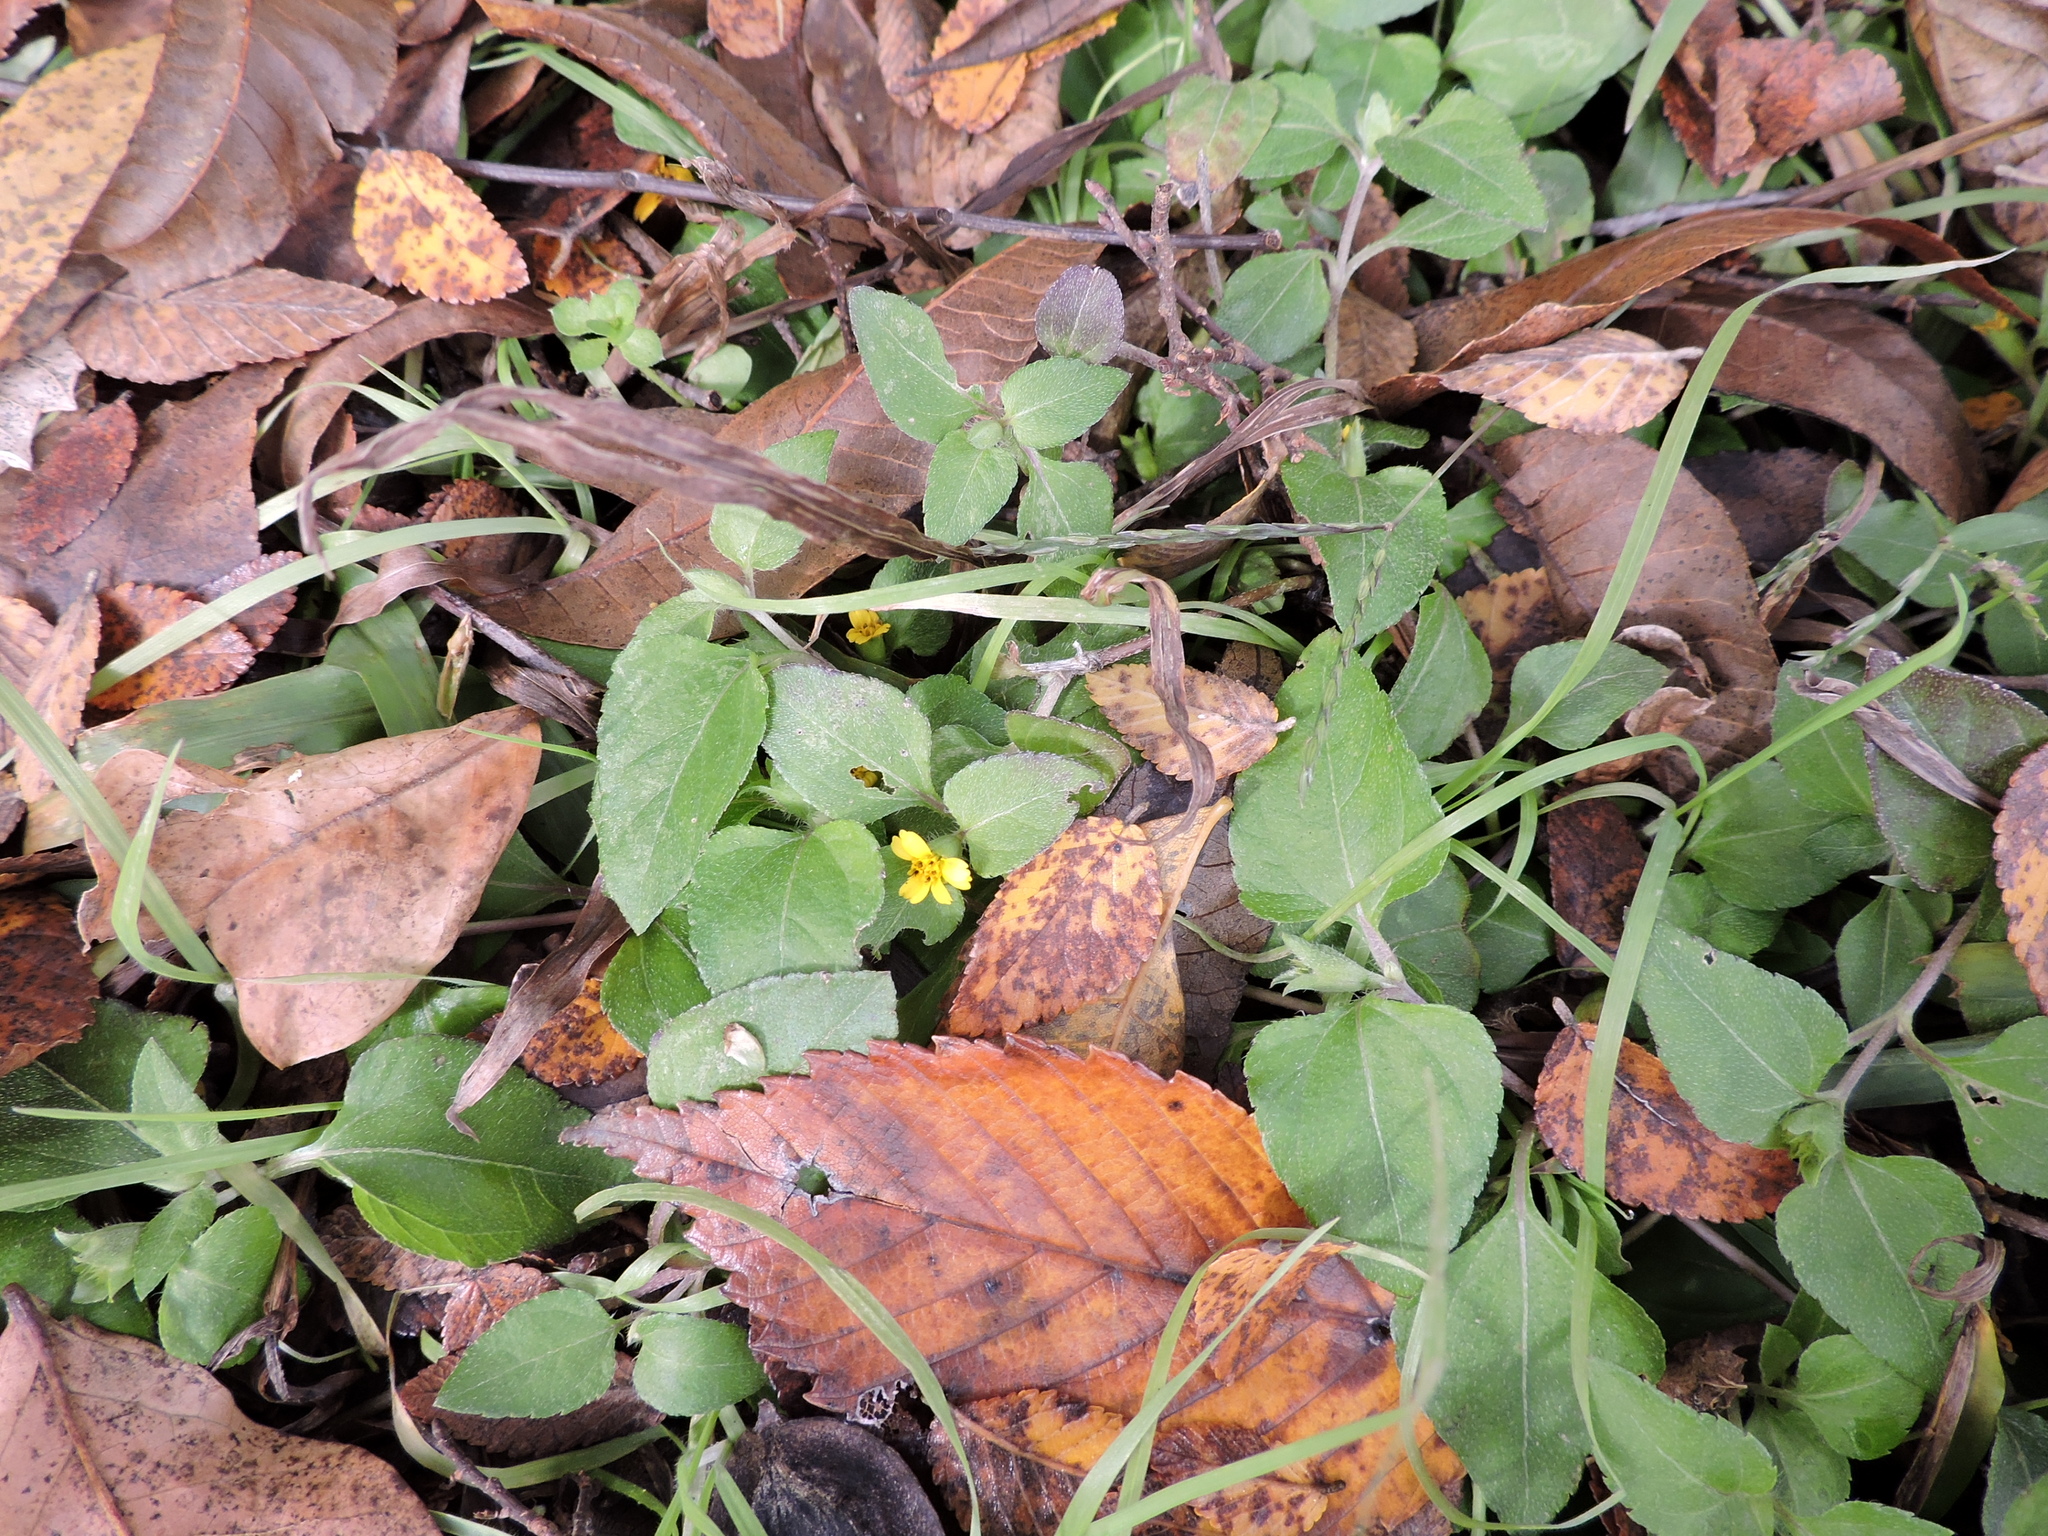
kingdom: Plantae
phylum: Tracheophyta
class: Magnoliopsida
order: Asterales
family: Asteraceae
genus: Calyptocarpus
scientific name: Calyptocarpus vialis
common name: Straggler daisy
